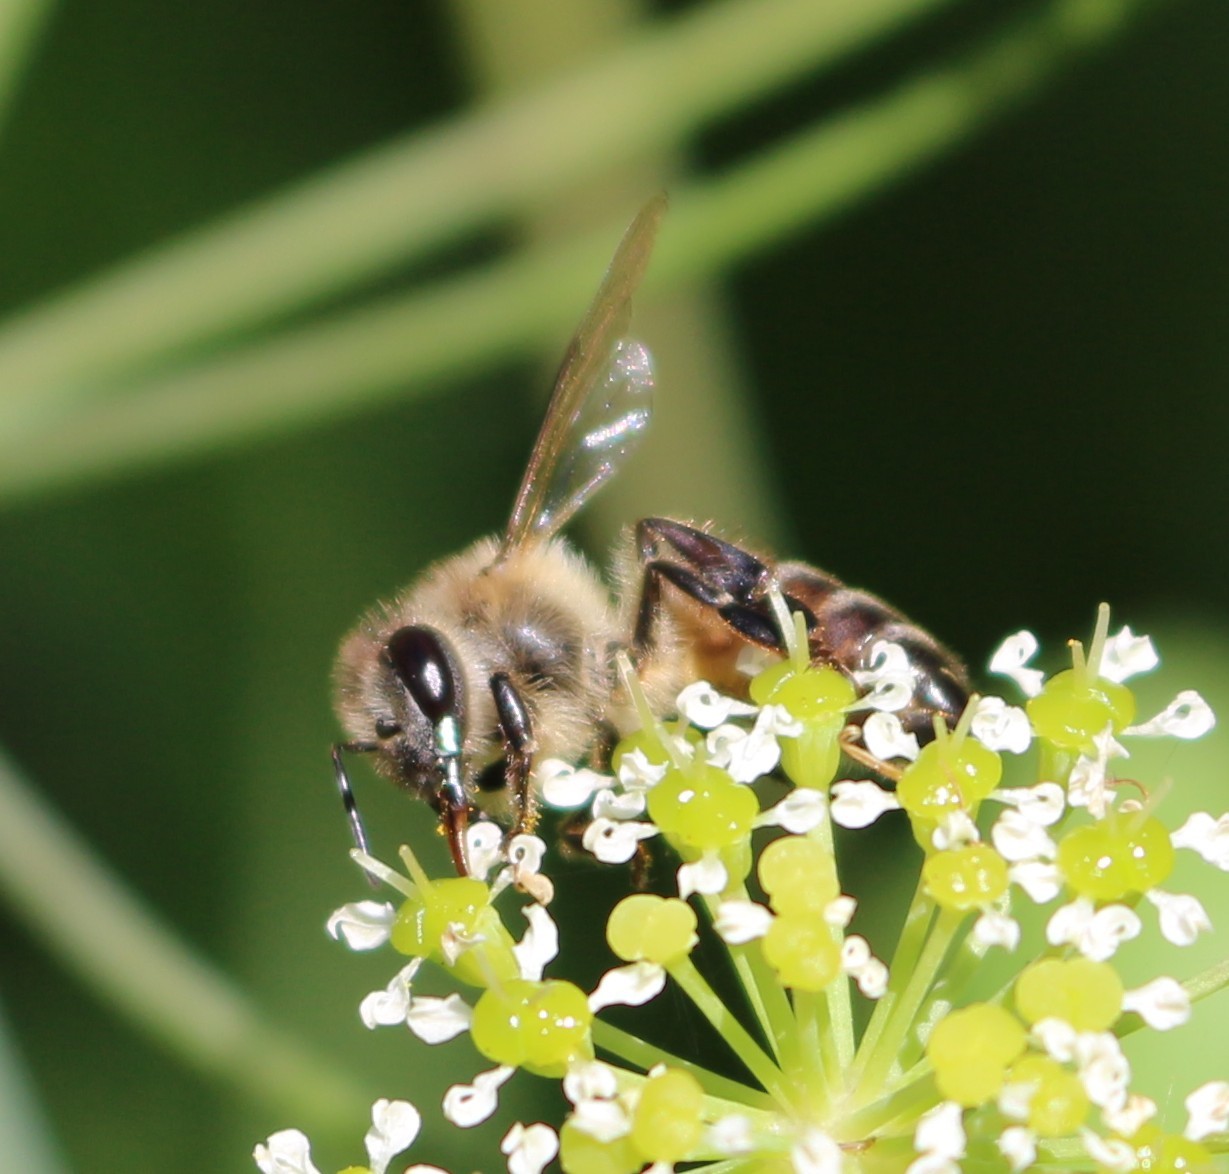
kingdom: Animalia
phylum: Arthropoda
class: Insecta
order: Hymenoptera
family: Apidae
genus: Apis
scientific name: Apis mellifera
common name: Honey bee
